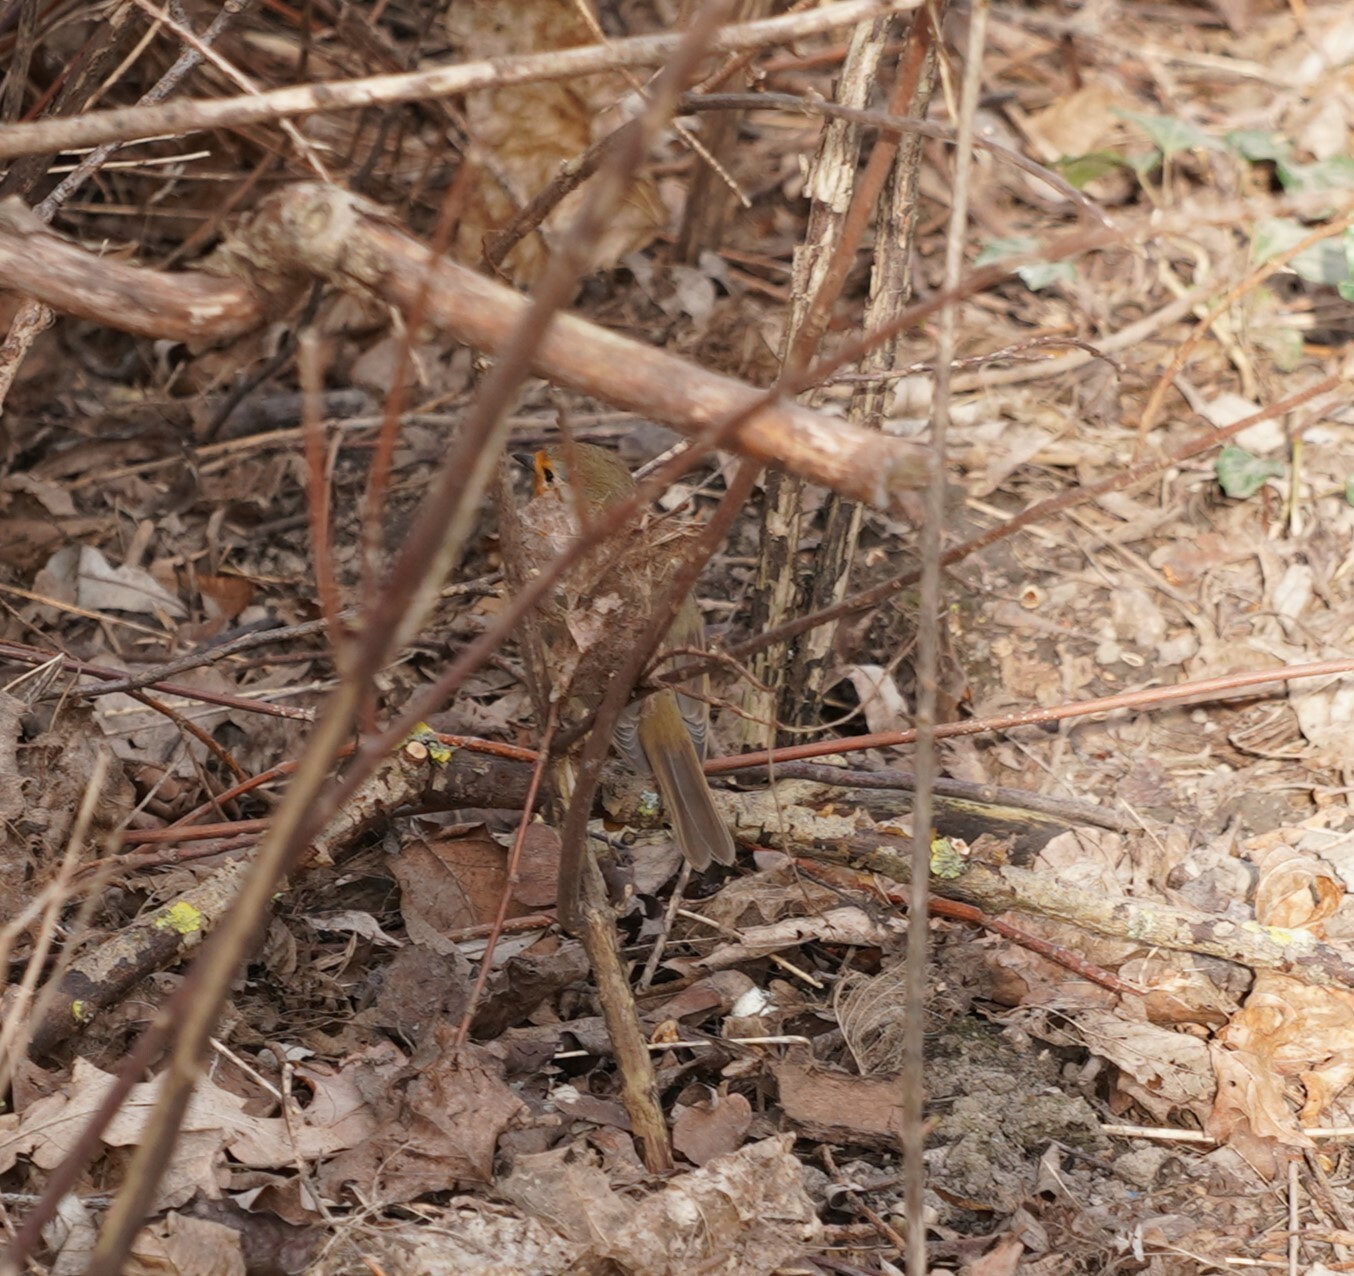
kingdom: Animalia
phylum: Chordata
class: Aves
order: Passeriformes
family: Muscicapidae
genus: Erithacus
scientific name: Erithacus rubecula
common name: European robin
